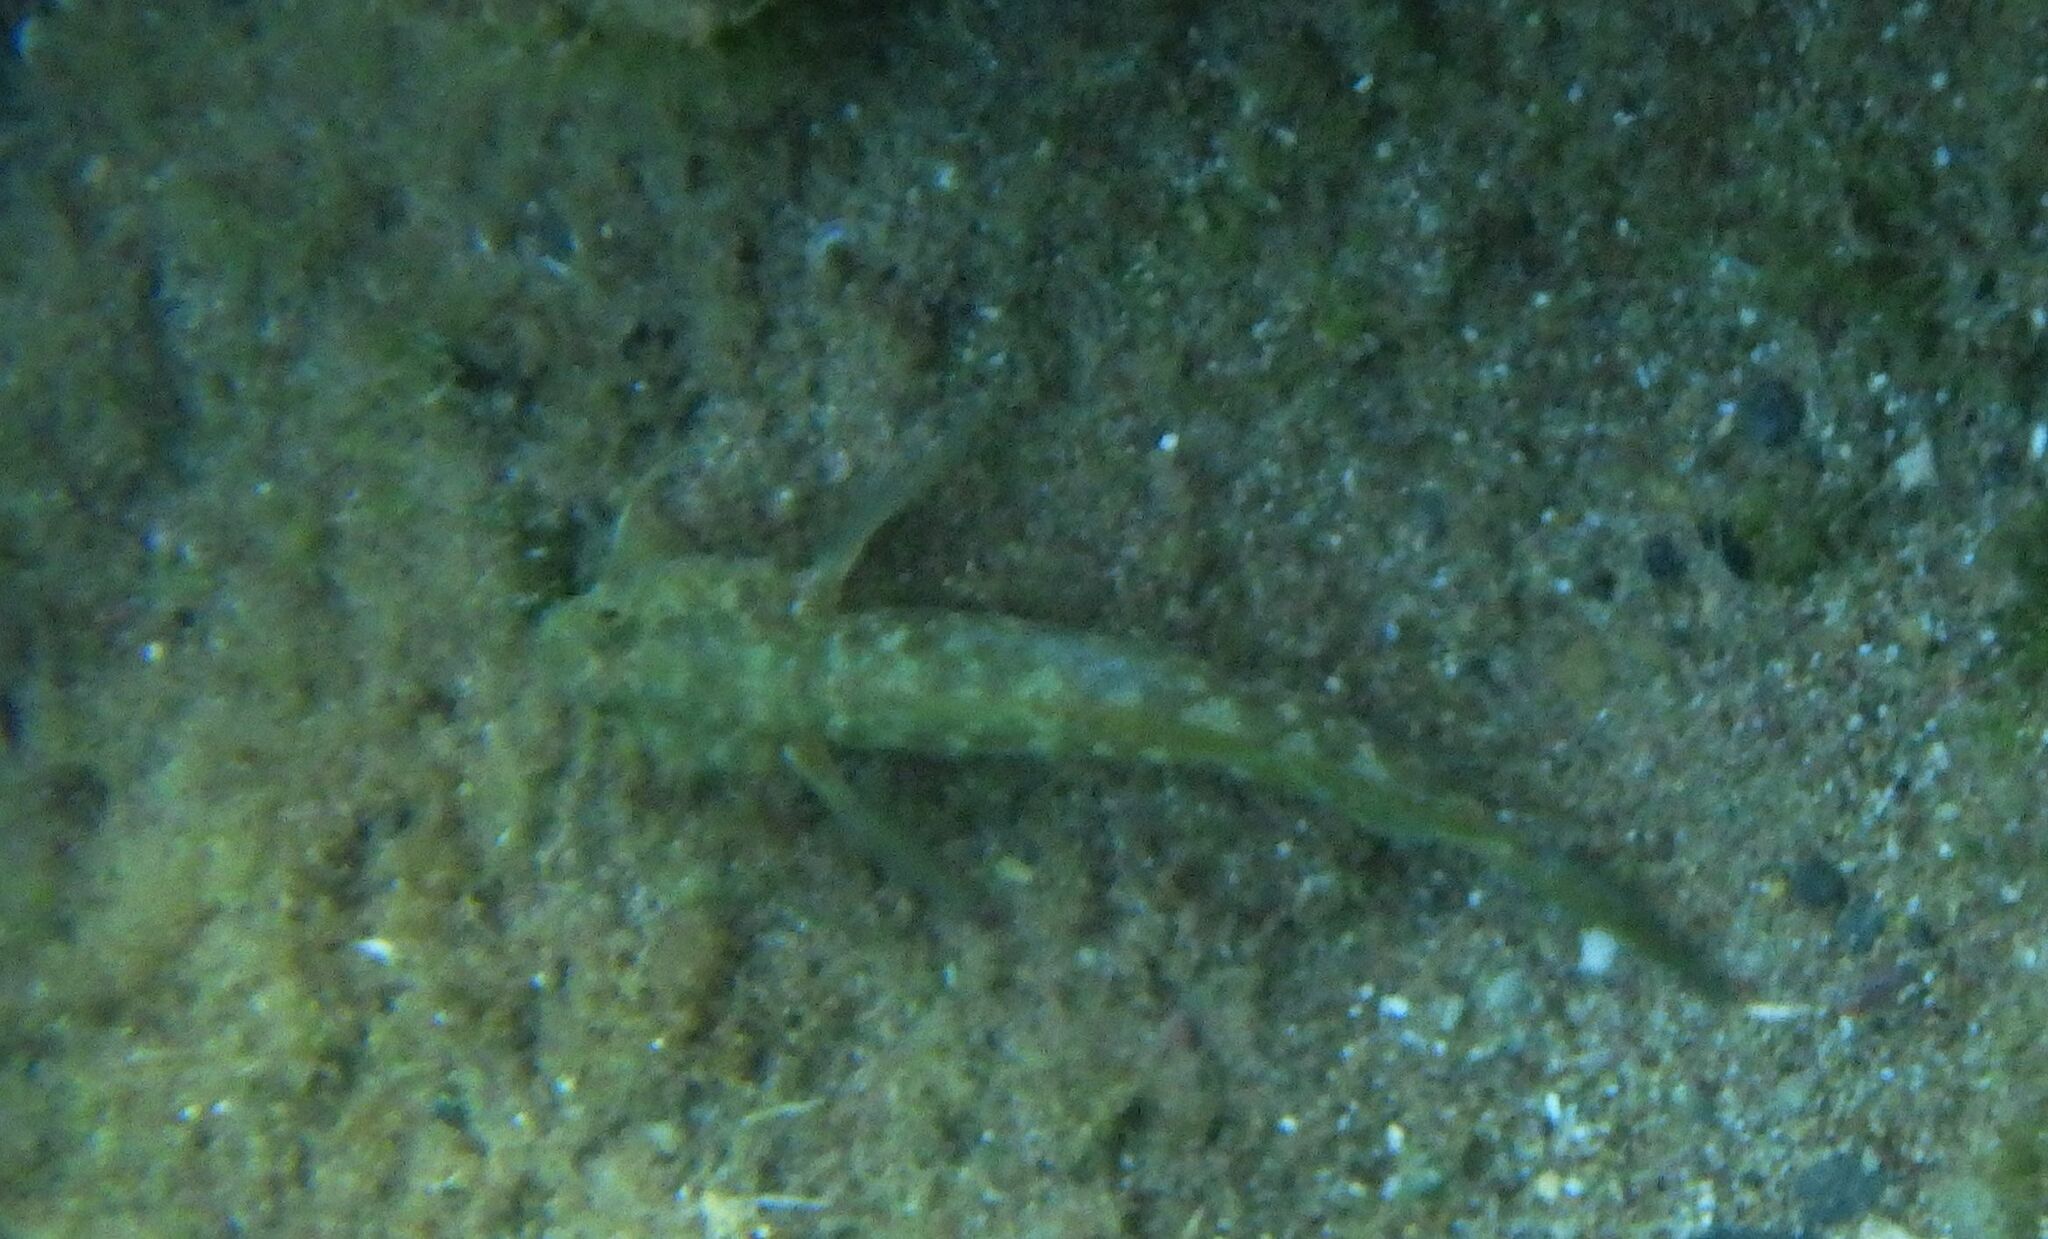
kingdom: Animalia
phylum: Chordata
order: Perciformes
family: Gobiidae
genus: Gobius
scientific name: Gobius
